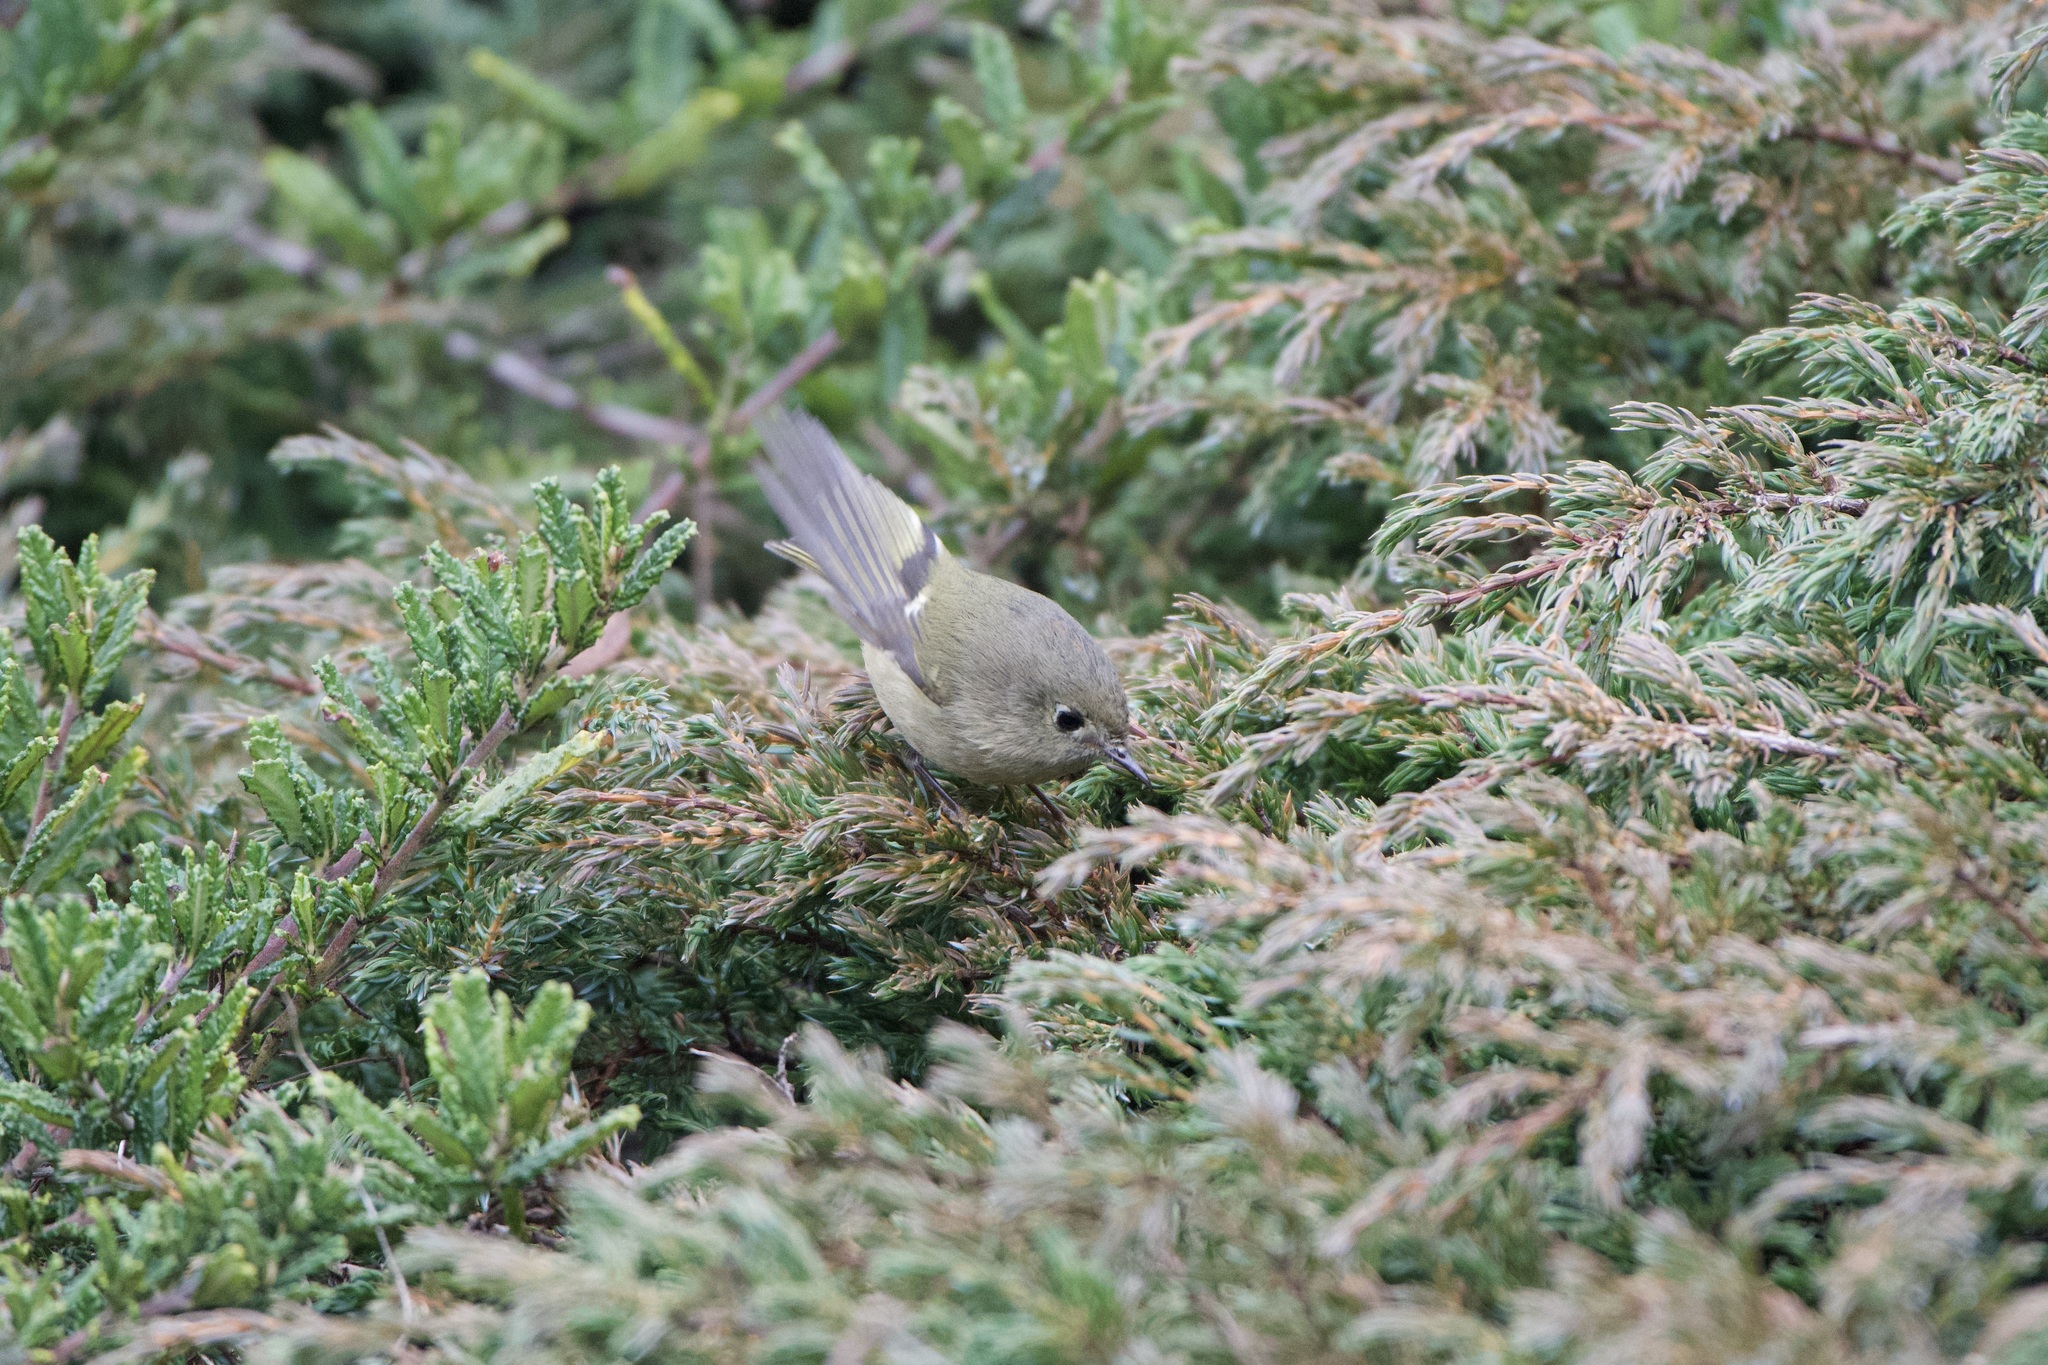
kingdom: Animalia
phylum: Chordata
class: Aves
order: Passeriformes
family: Regulidae
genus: Regulus
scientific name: Regulus calendula
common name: Ruby-crowned kinglet
